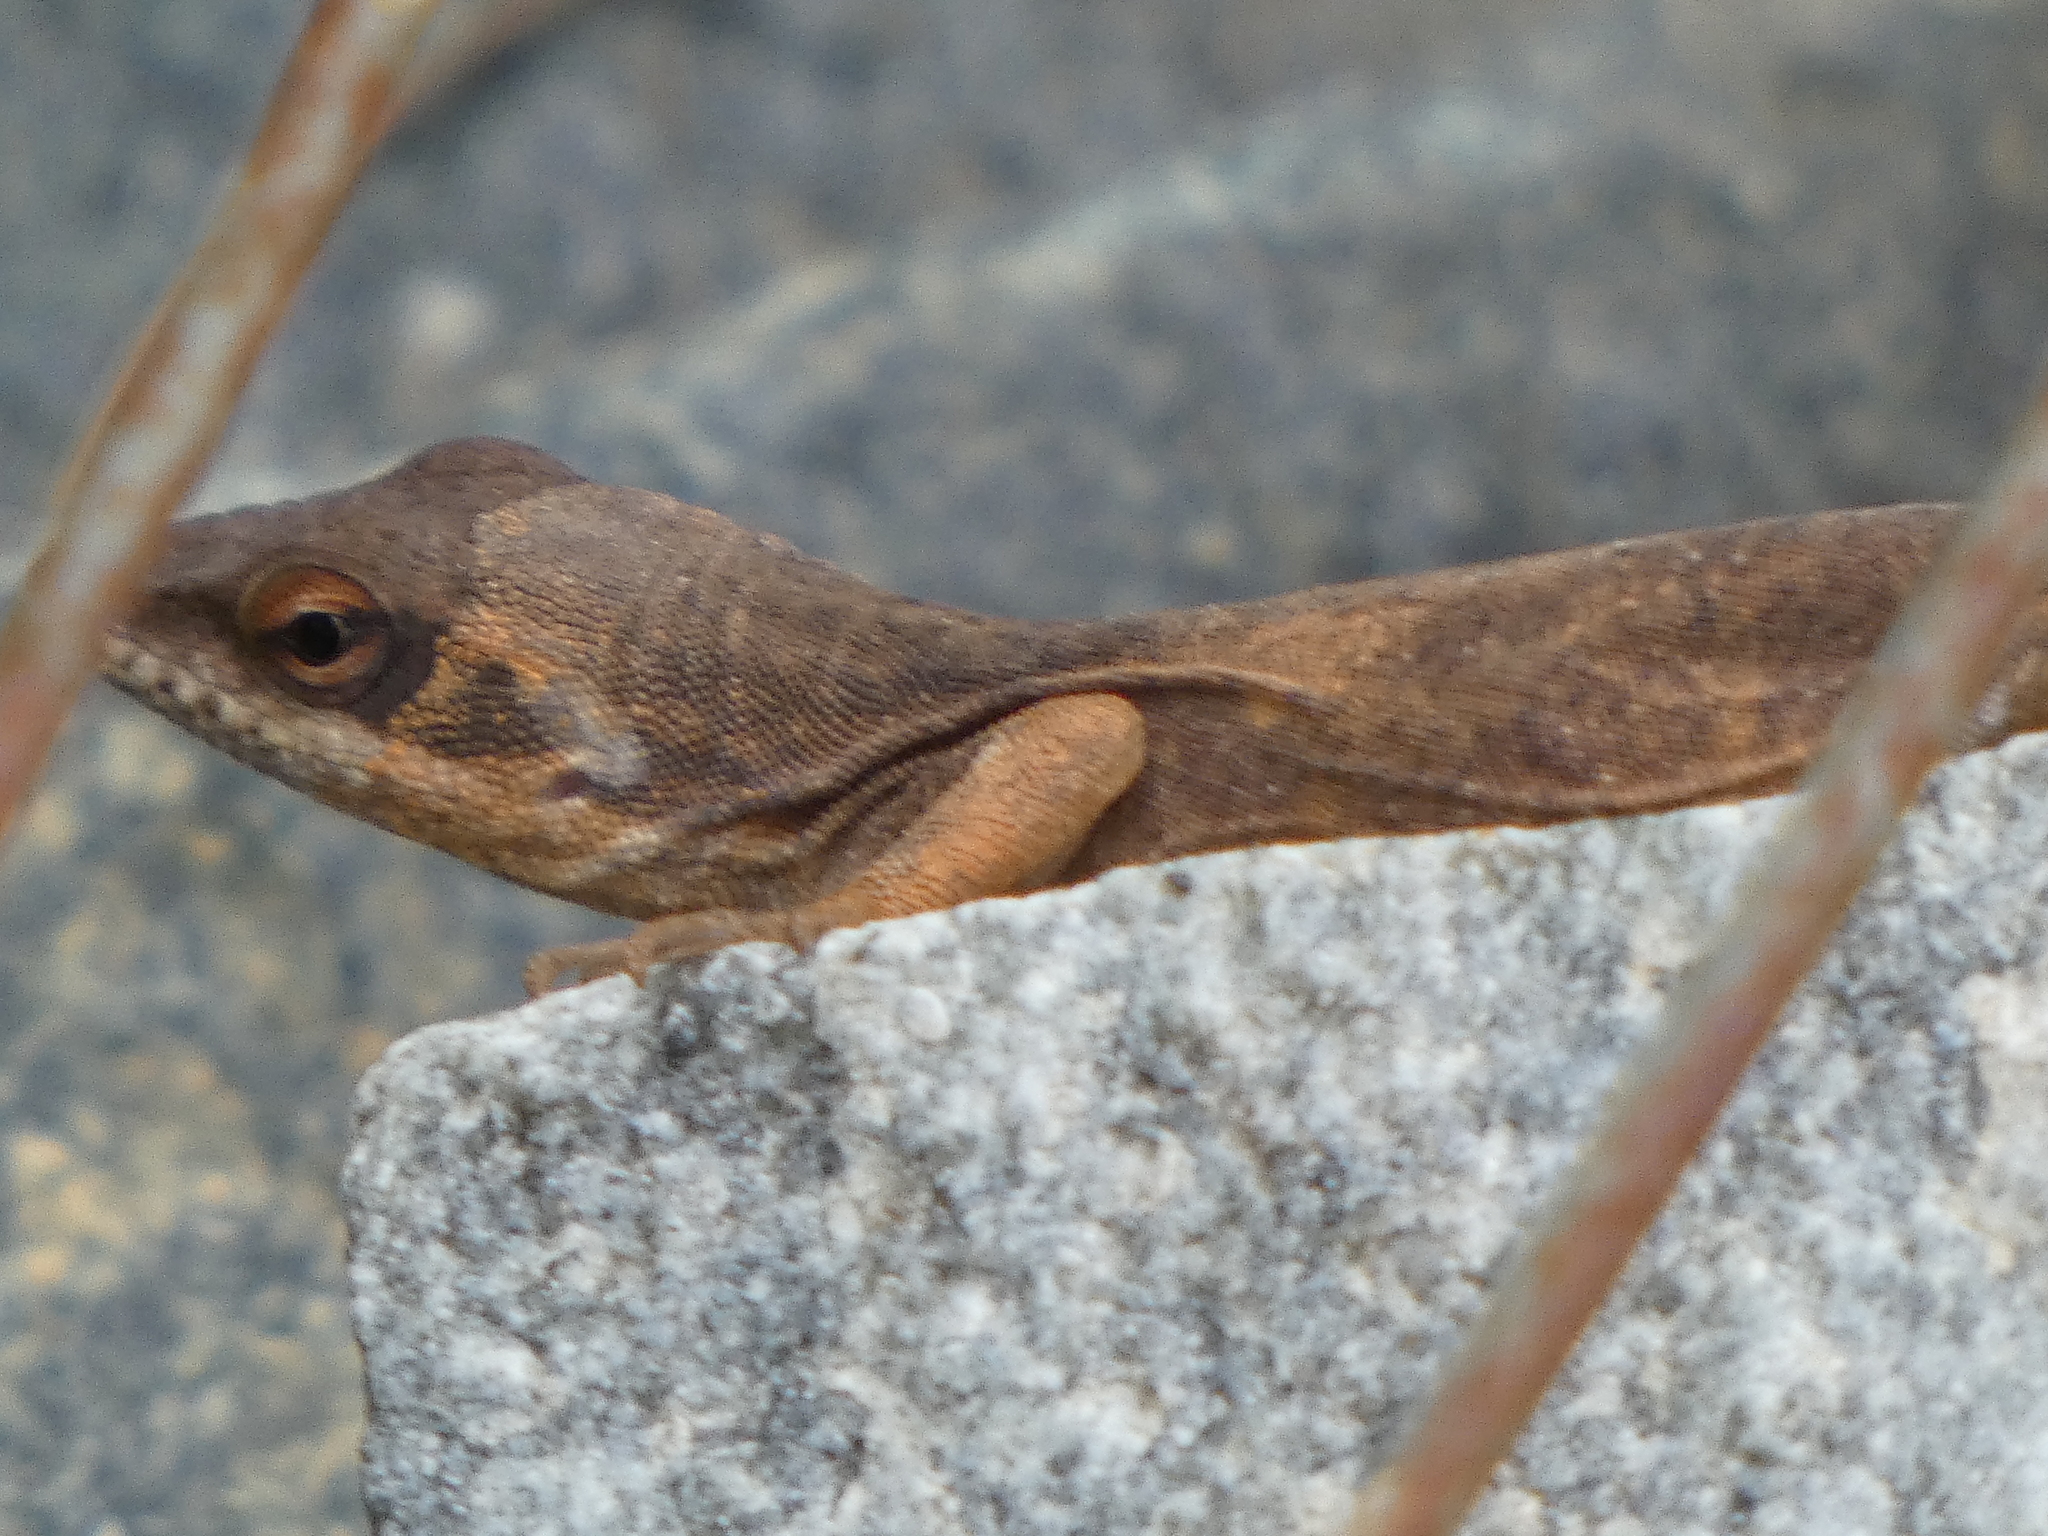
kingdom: Animalia
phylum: Chordata
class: Squamata
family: Dactyloidae
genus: Anolis
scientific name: Anolis carolinensis
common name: Green anole
